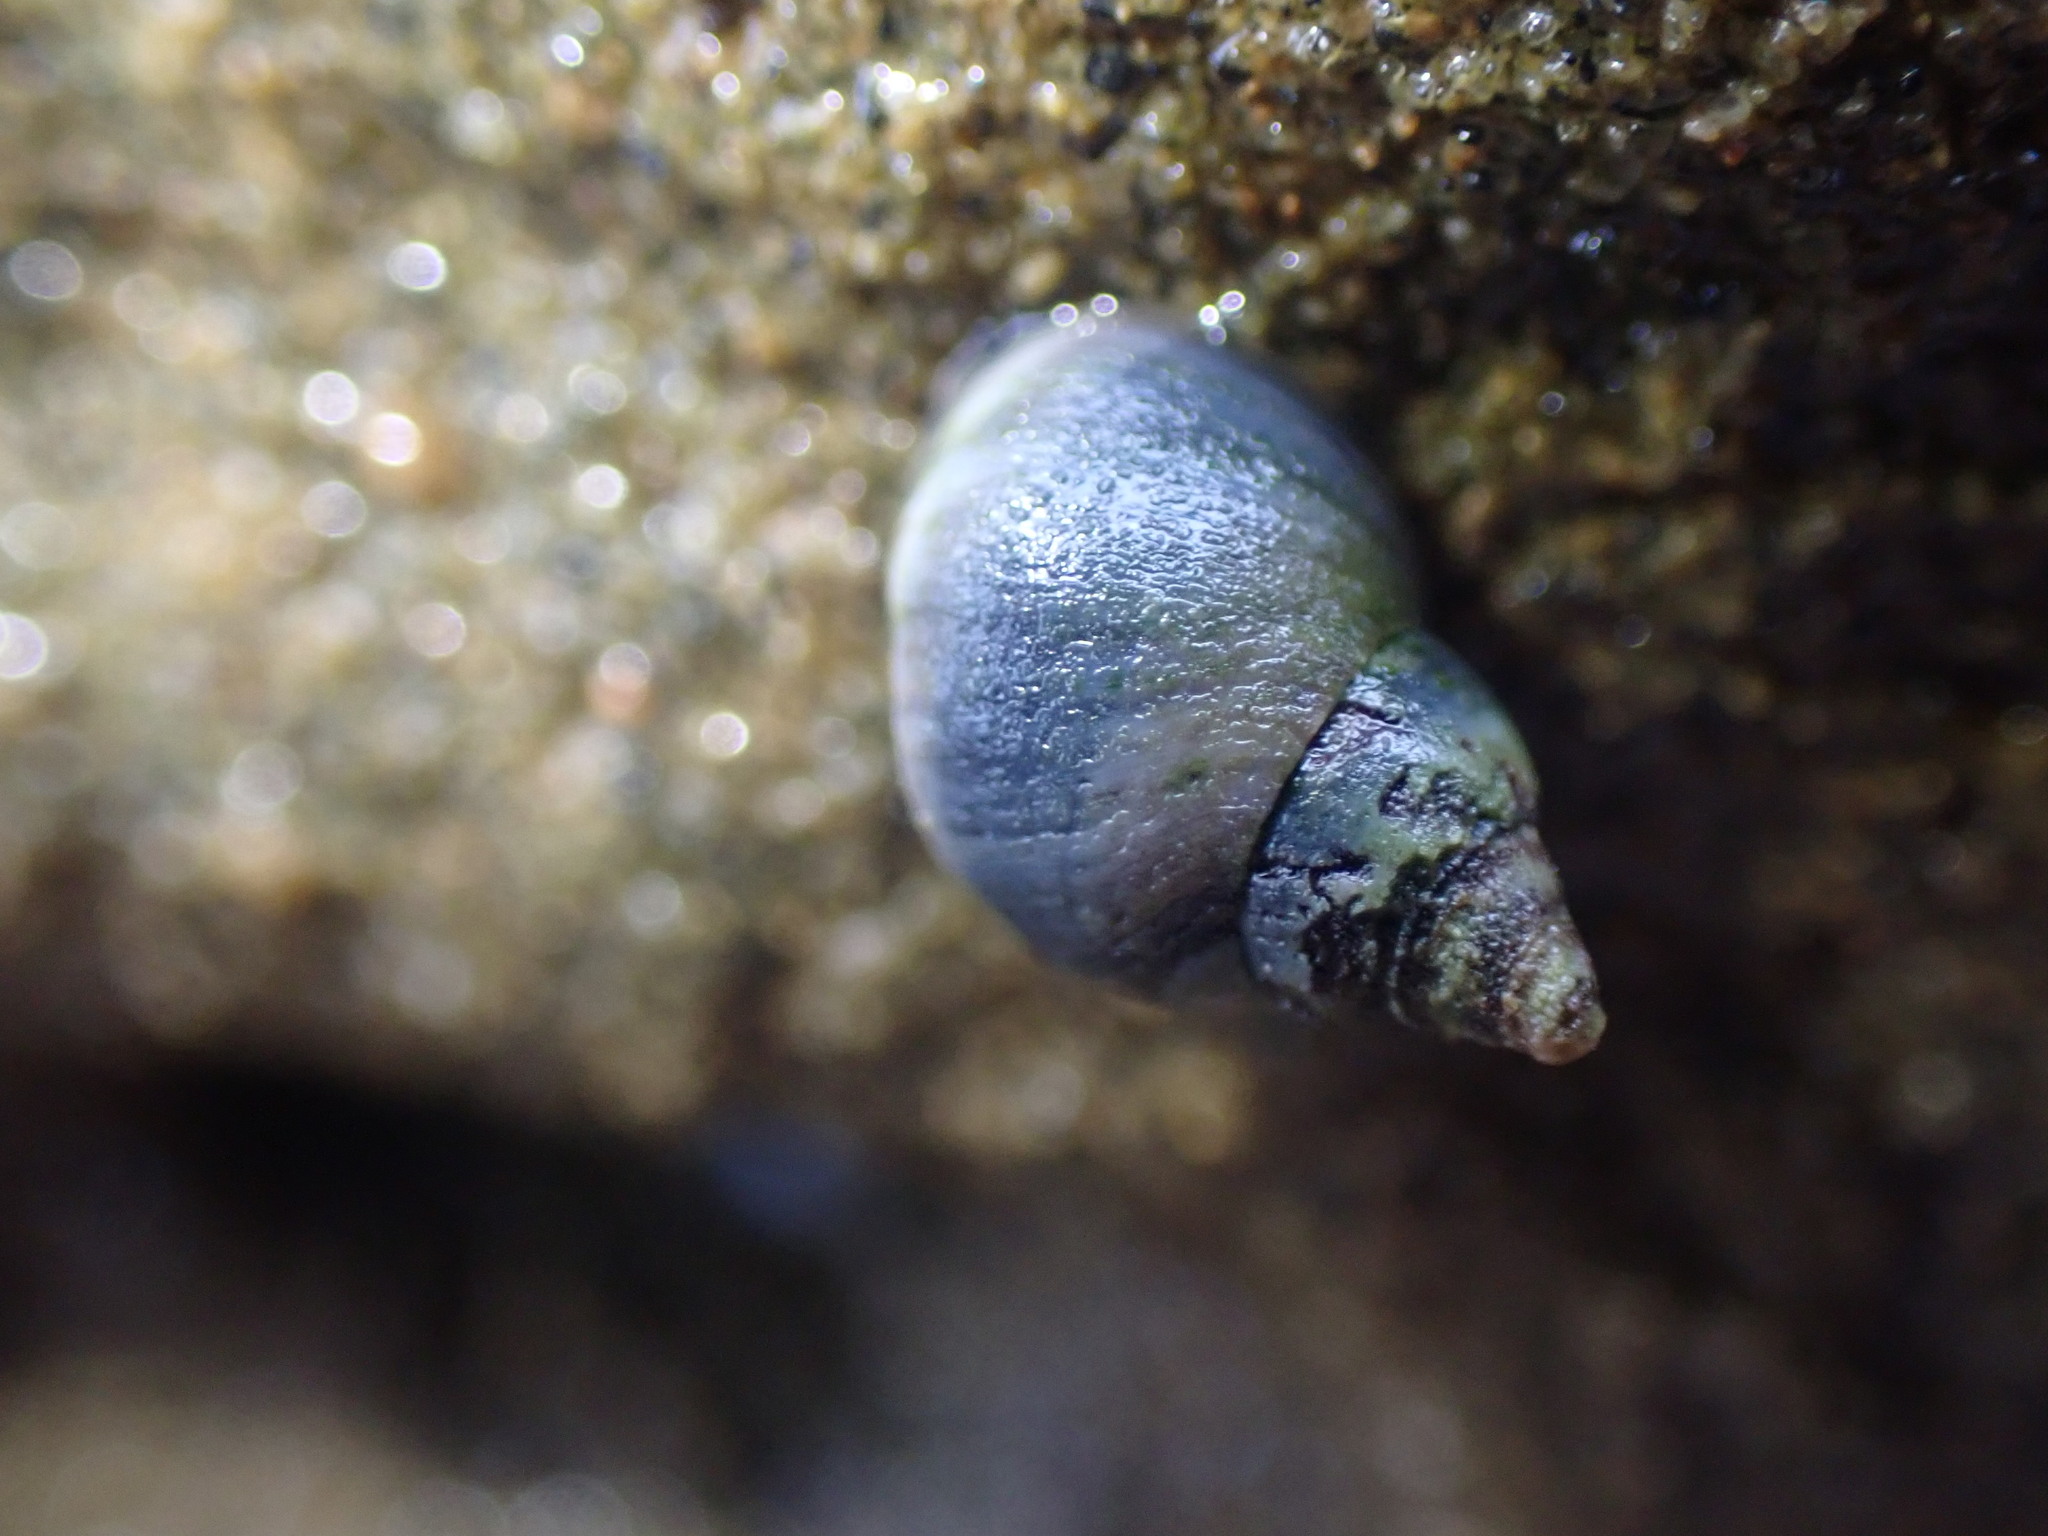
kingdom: Animalia
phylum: Mollusca
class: Gastropoda
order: Littorinimorpha
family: Littorinidae
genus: Austrolittorina
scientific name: Austrolittorina antipodum
